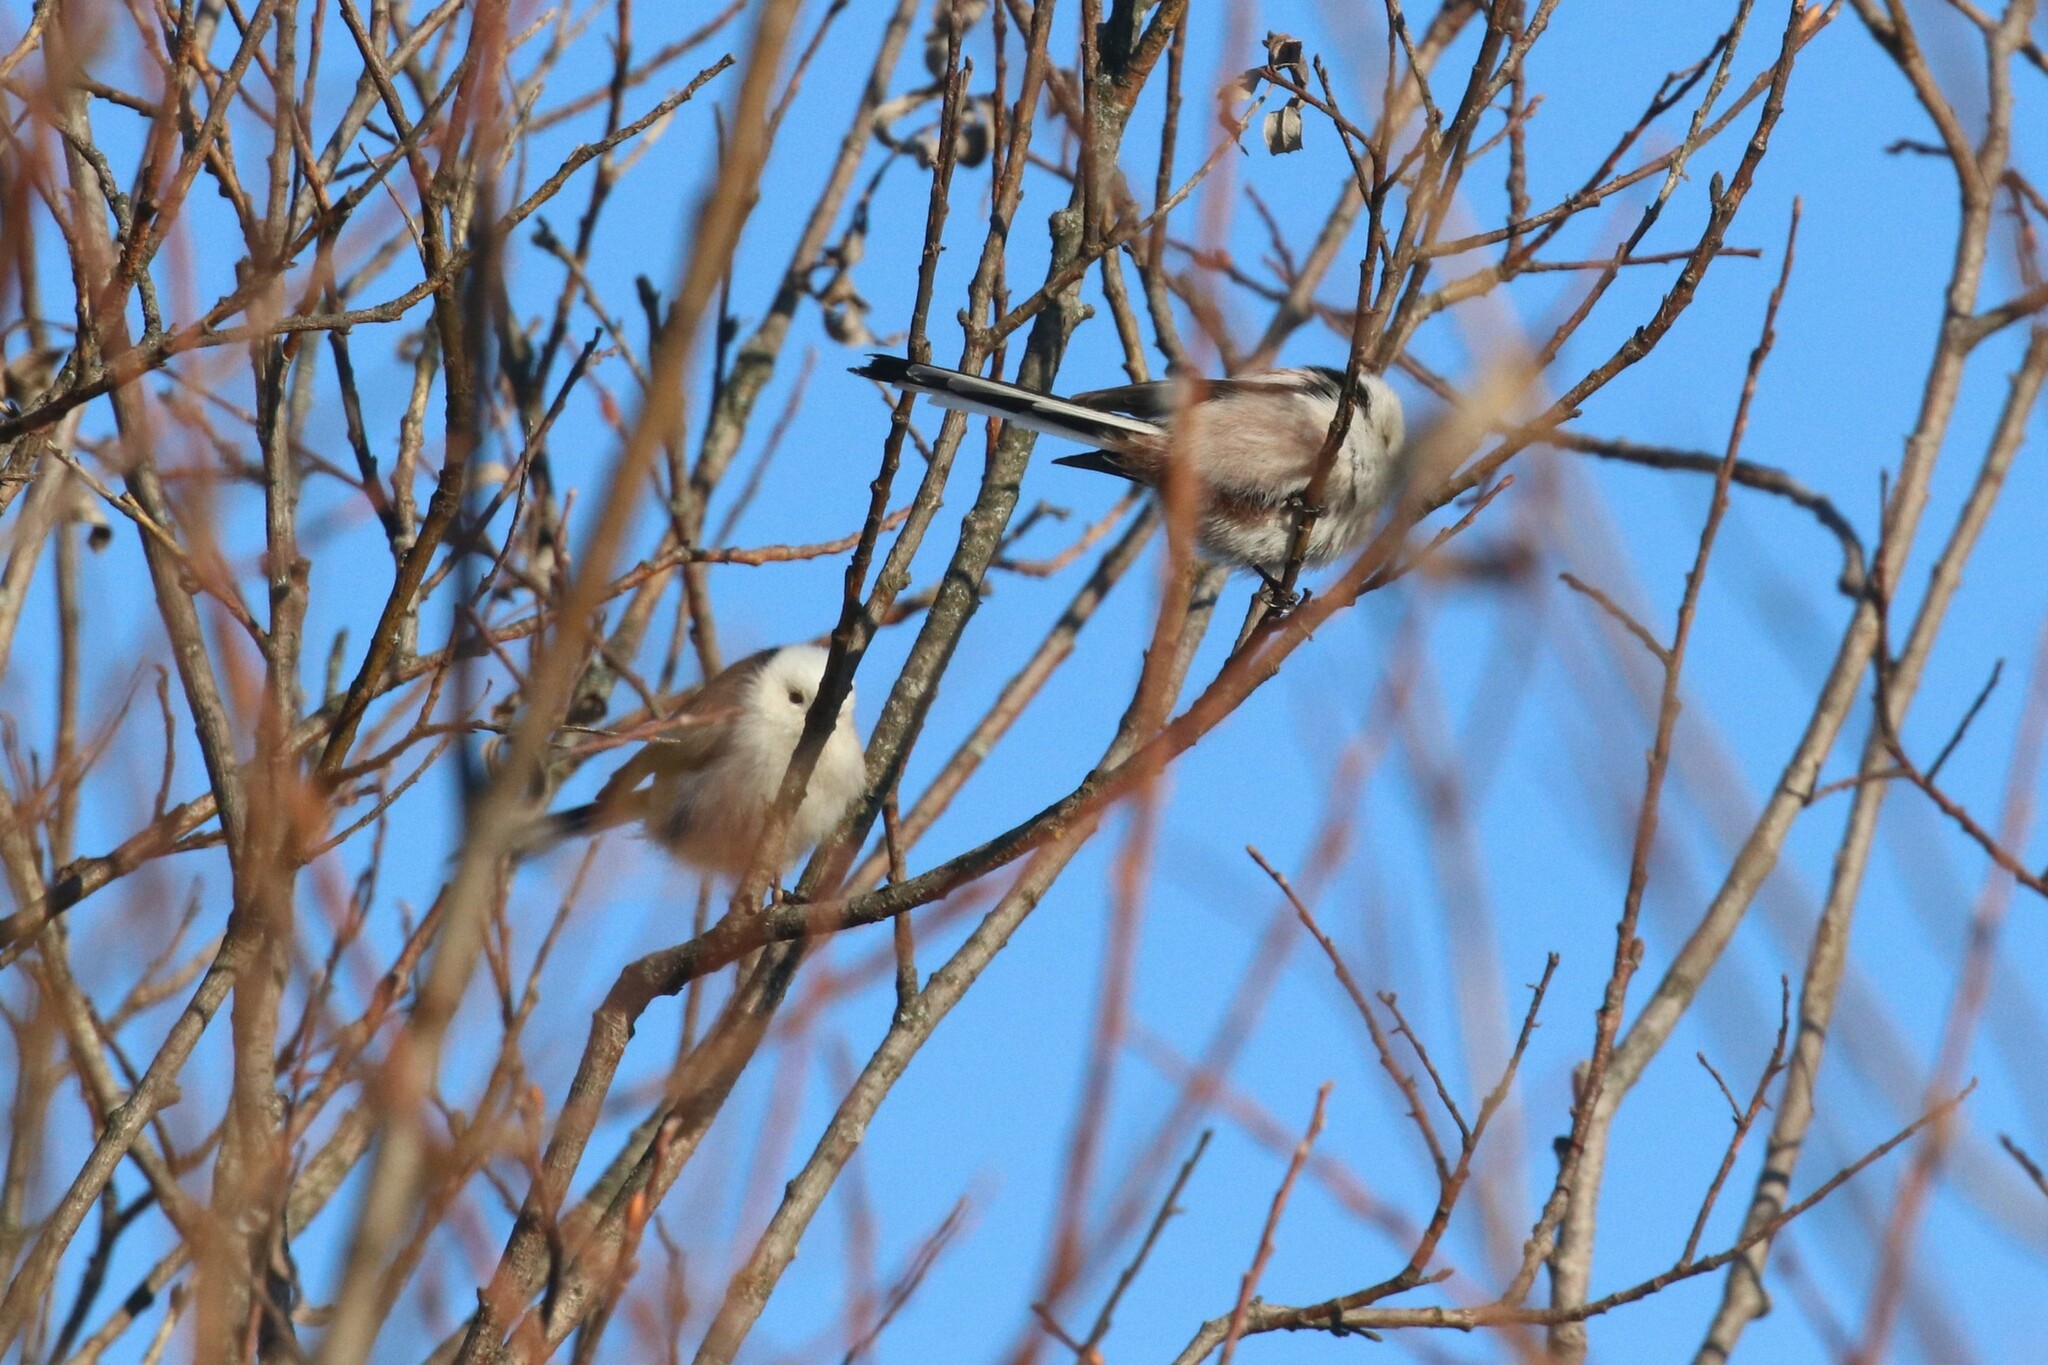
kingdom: Animalia
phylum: Chordata
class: Aves
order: Passeriformes
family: Aegithalidae
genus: Aegithalos
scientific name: Aegithalos caudatus
